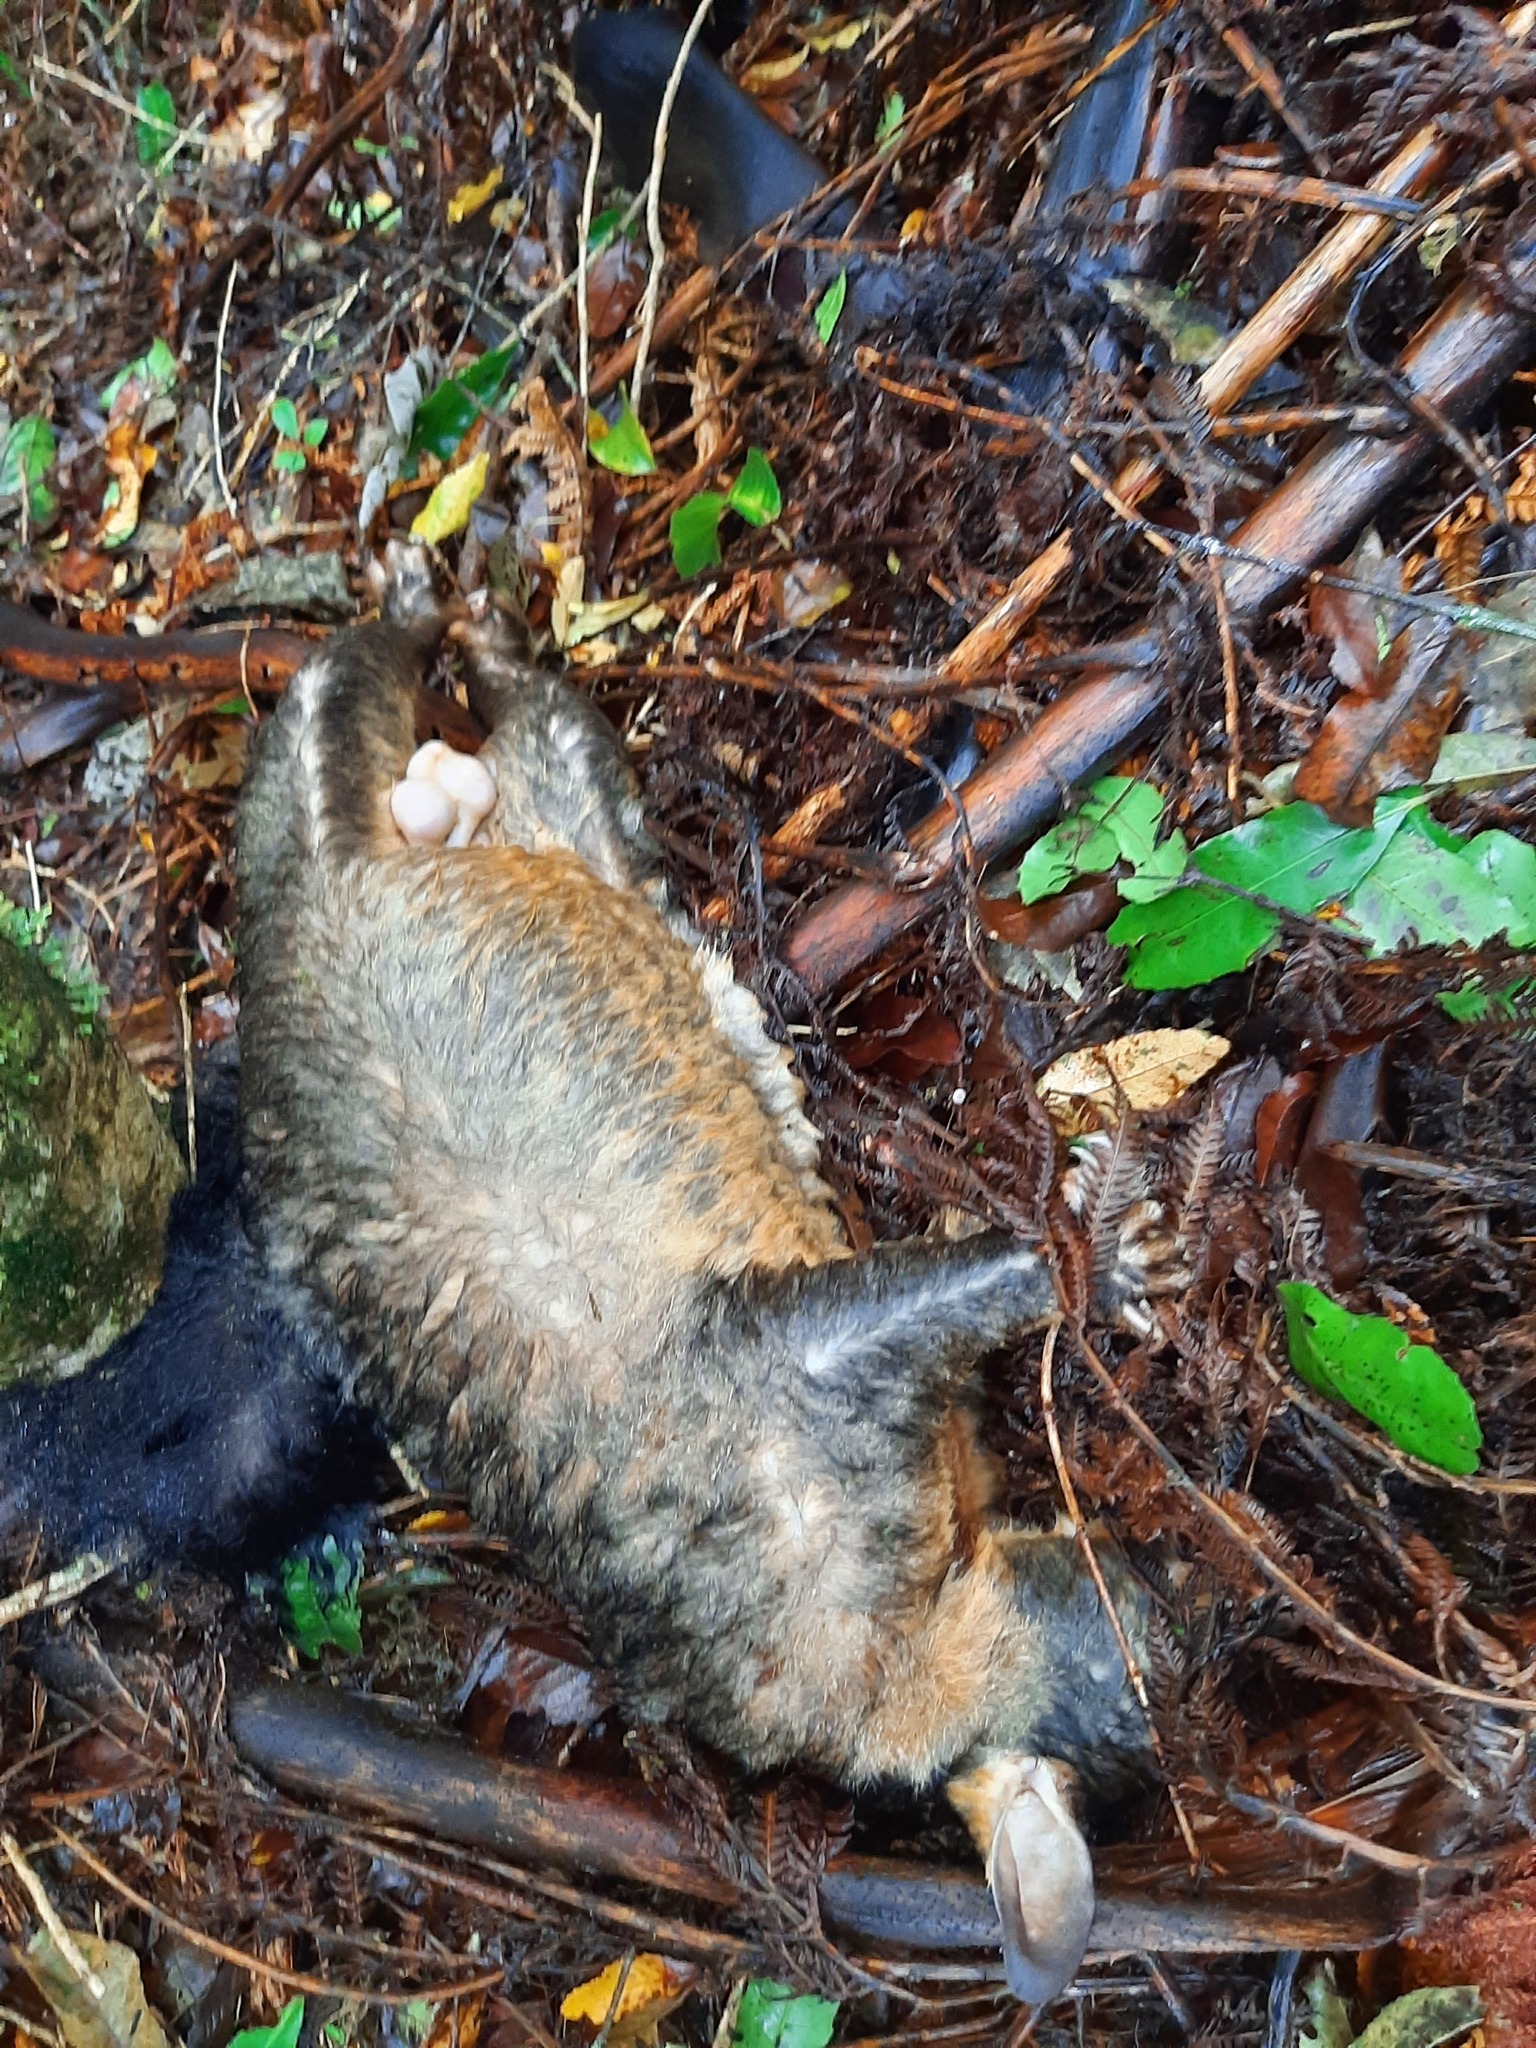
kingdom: Animalia
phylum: Chordata
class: Mammalia
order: Diprotodontia
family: Phalangeridae
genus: Trichosurus
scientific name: Trichosurus vulpecula
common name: Common brushtail
